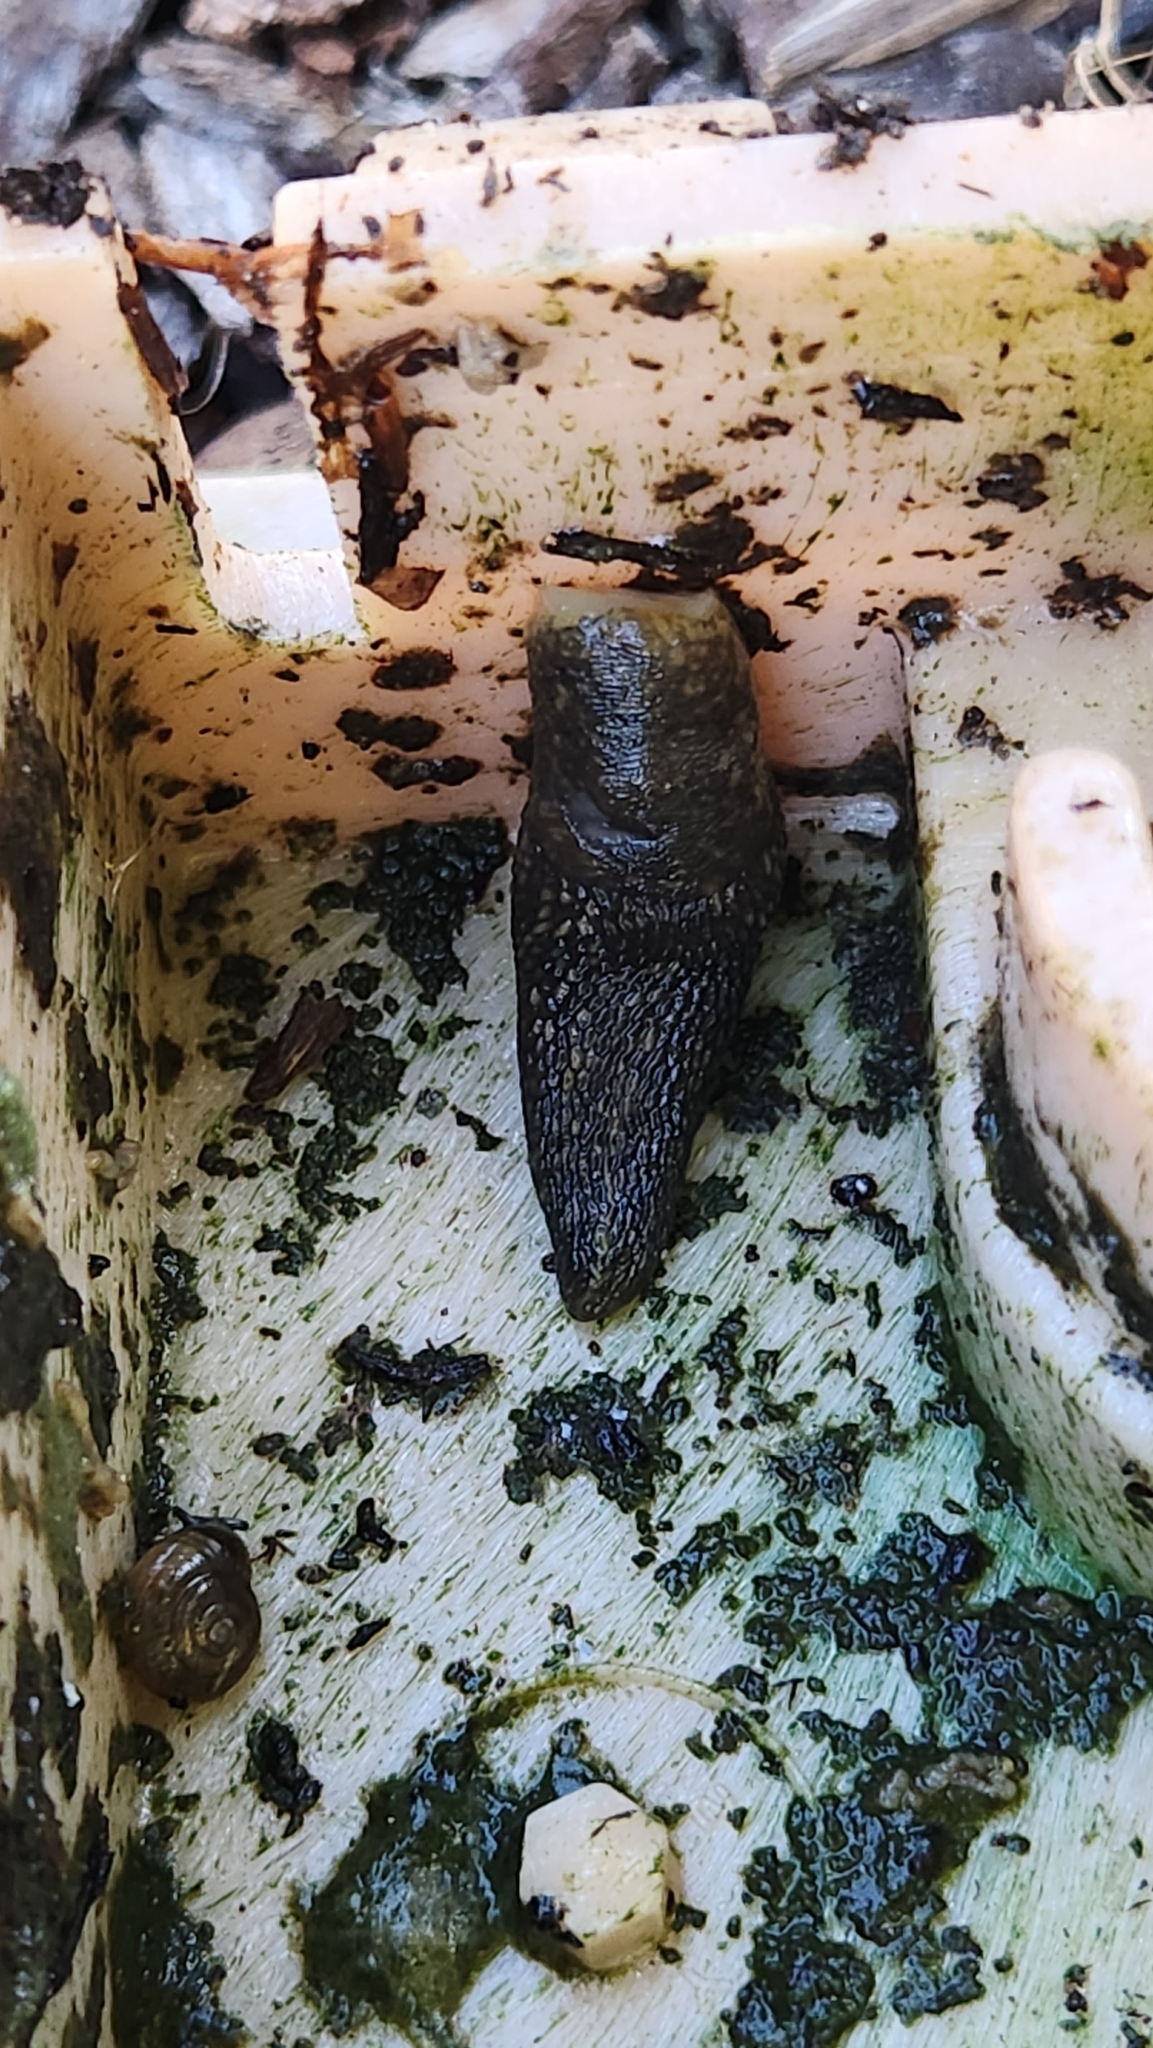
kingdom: Animalia
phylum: Mollusca
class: Gastropoda
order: Stylommatophora
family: Limacidae
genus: Limacus
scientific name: Limacus flavus
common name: Yellow gardenslug
